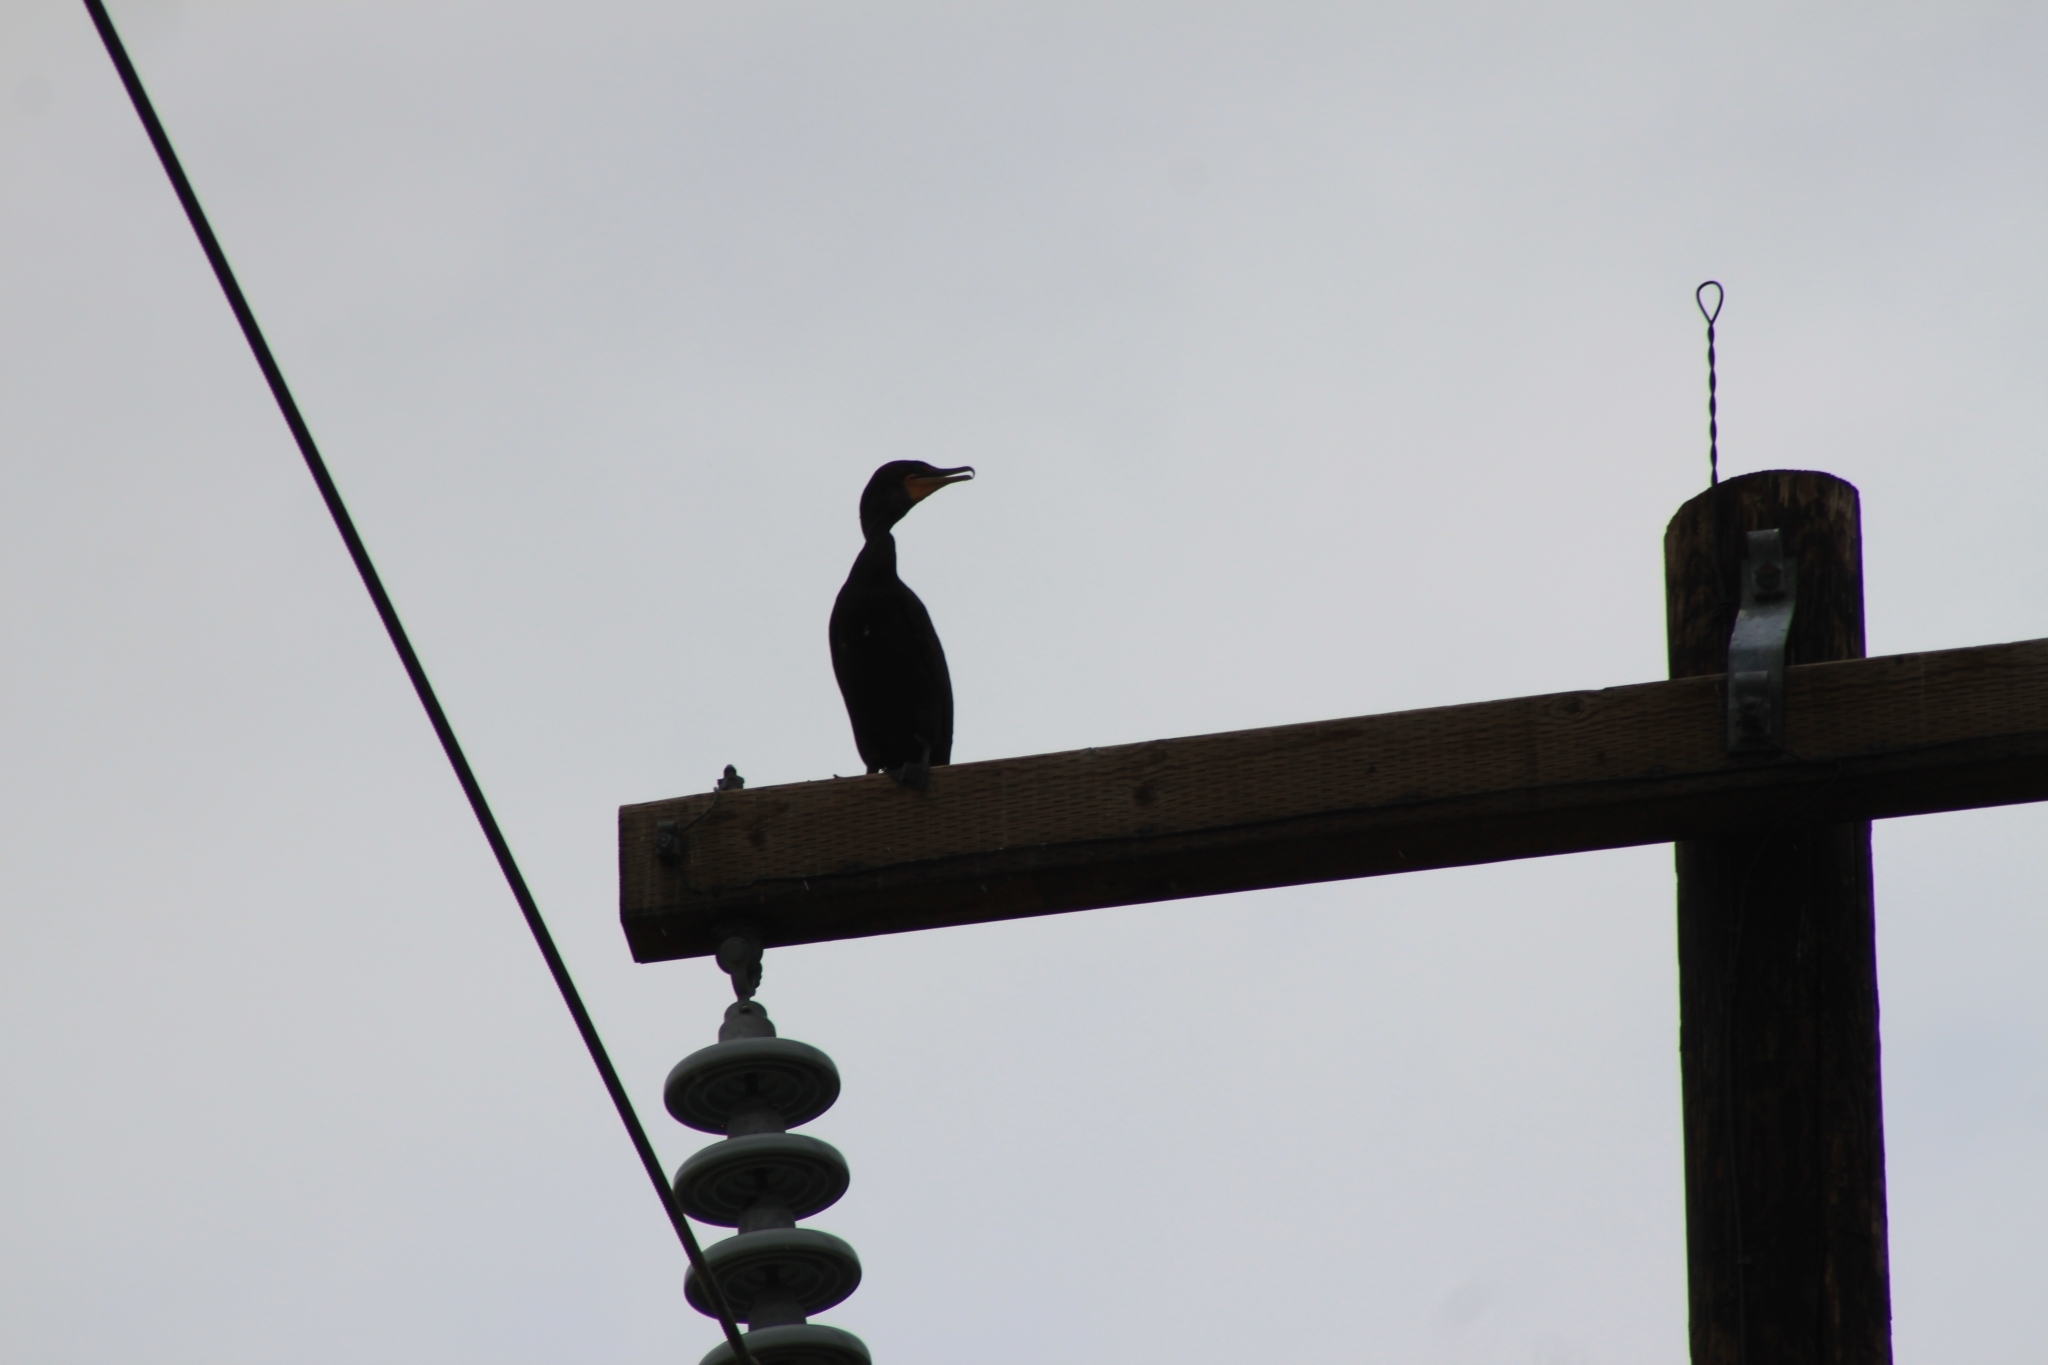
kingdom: Animalia
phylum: Chordata
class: Aves
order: Suliformes
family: Phalacrocoracidae
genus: Phalacrocorax
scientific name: Phalacrocorax auritus
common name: Double-crested cormorant
